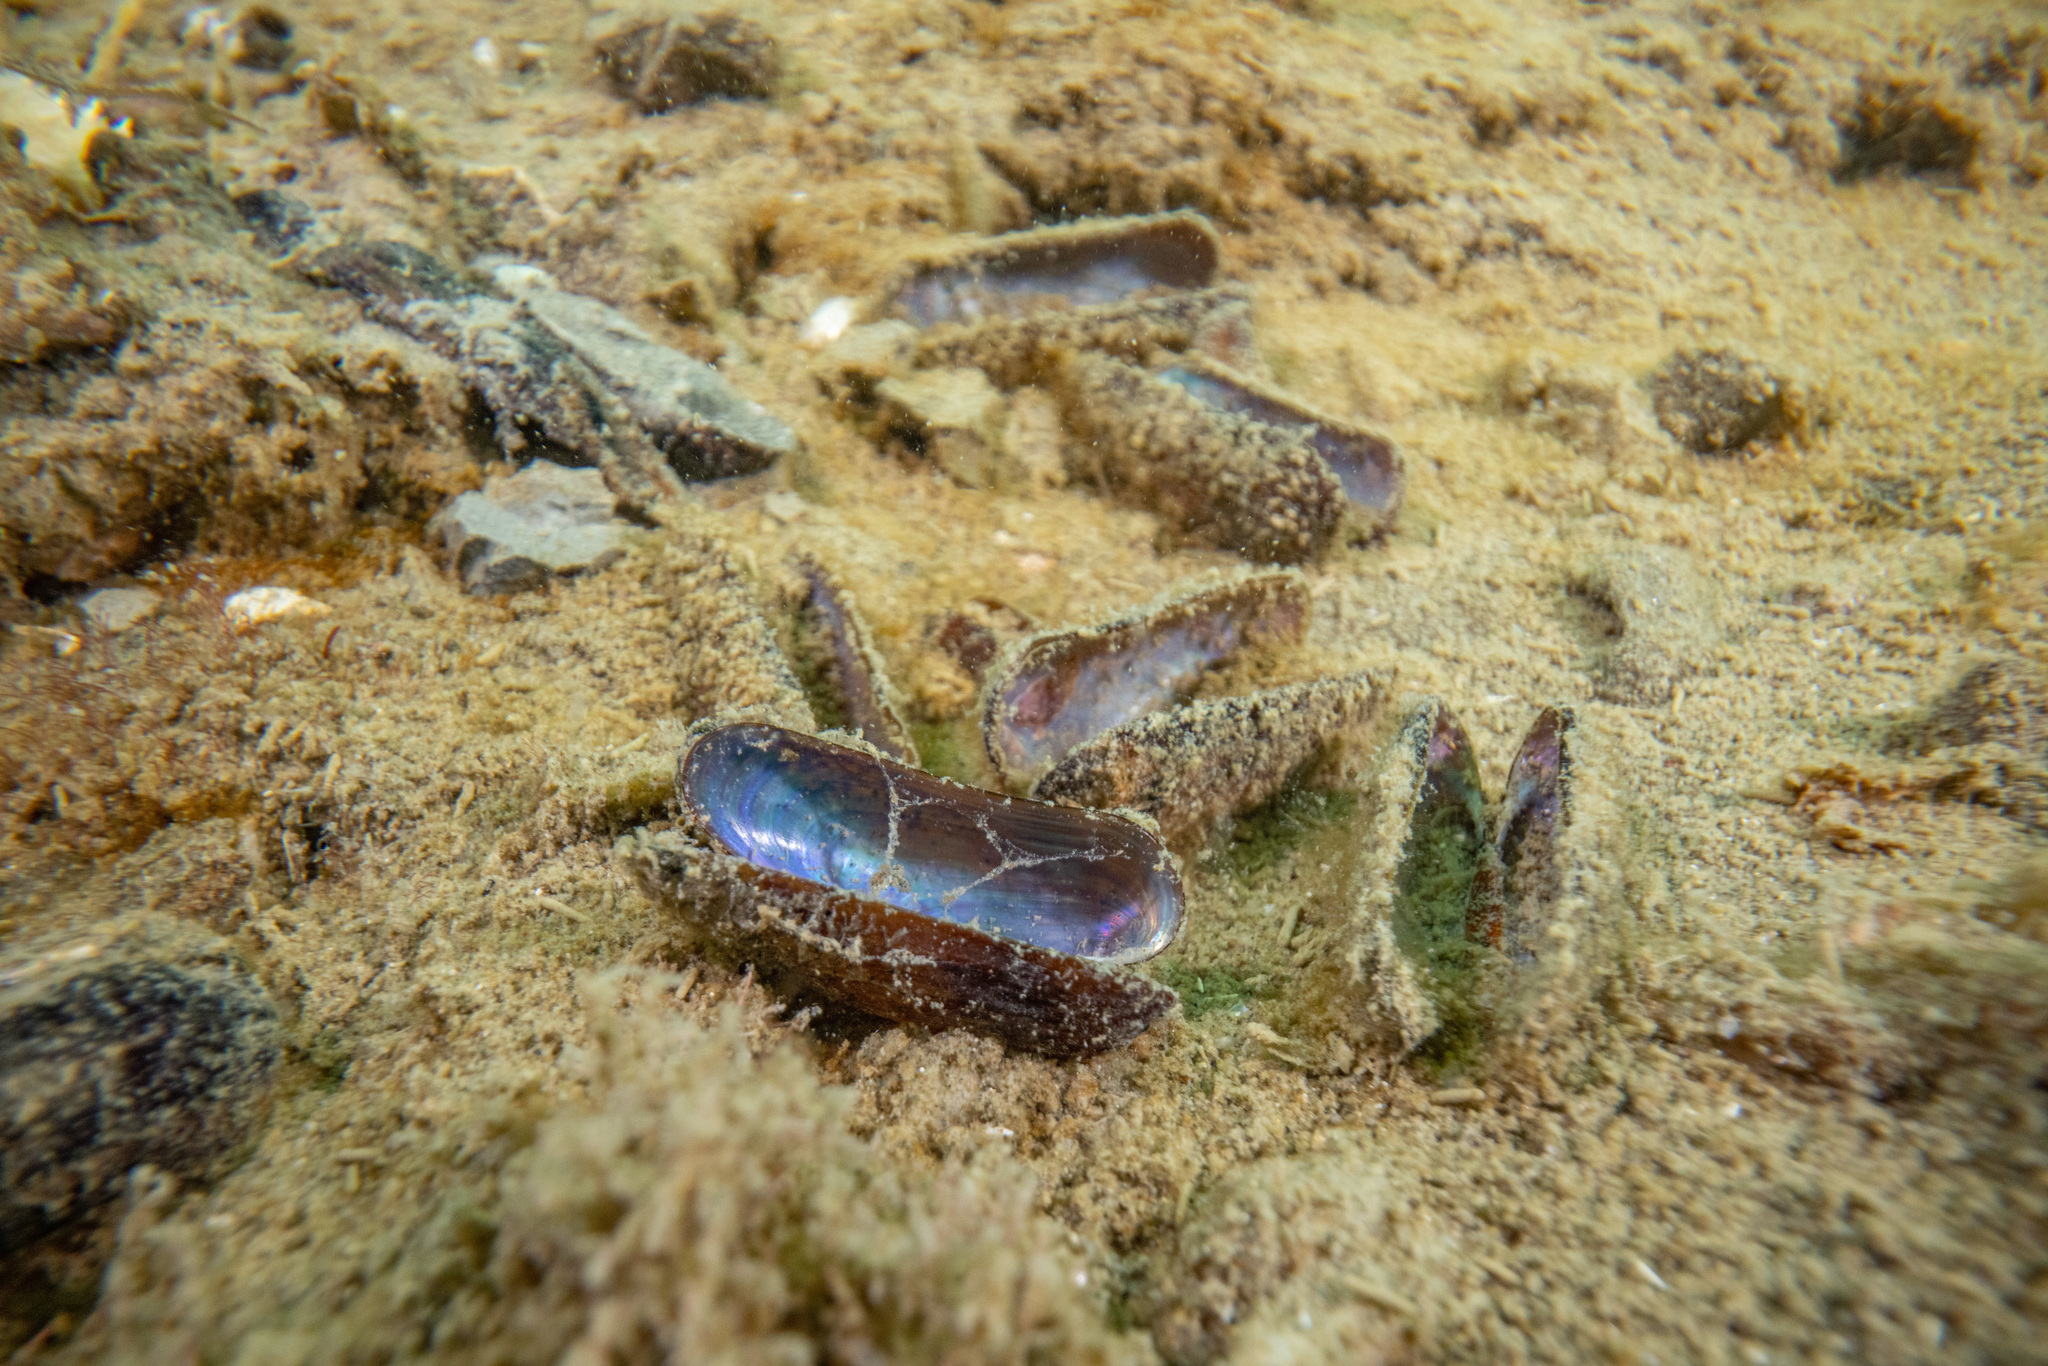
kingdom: Animalia
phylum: Mollusca
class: Bivalvia
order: Mytilida
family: Mytilidae
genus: Zelithophaga
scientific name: Zelithophaga truncata
